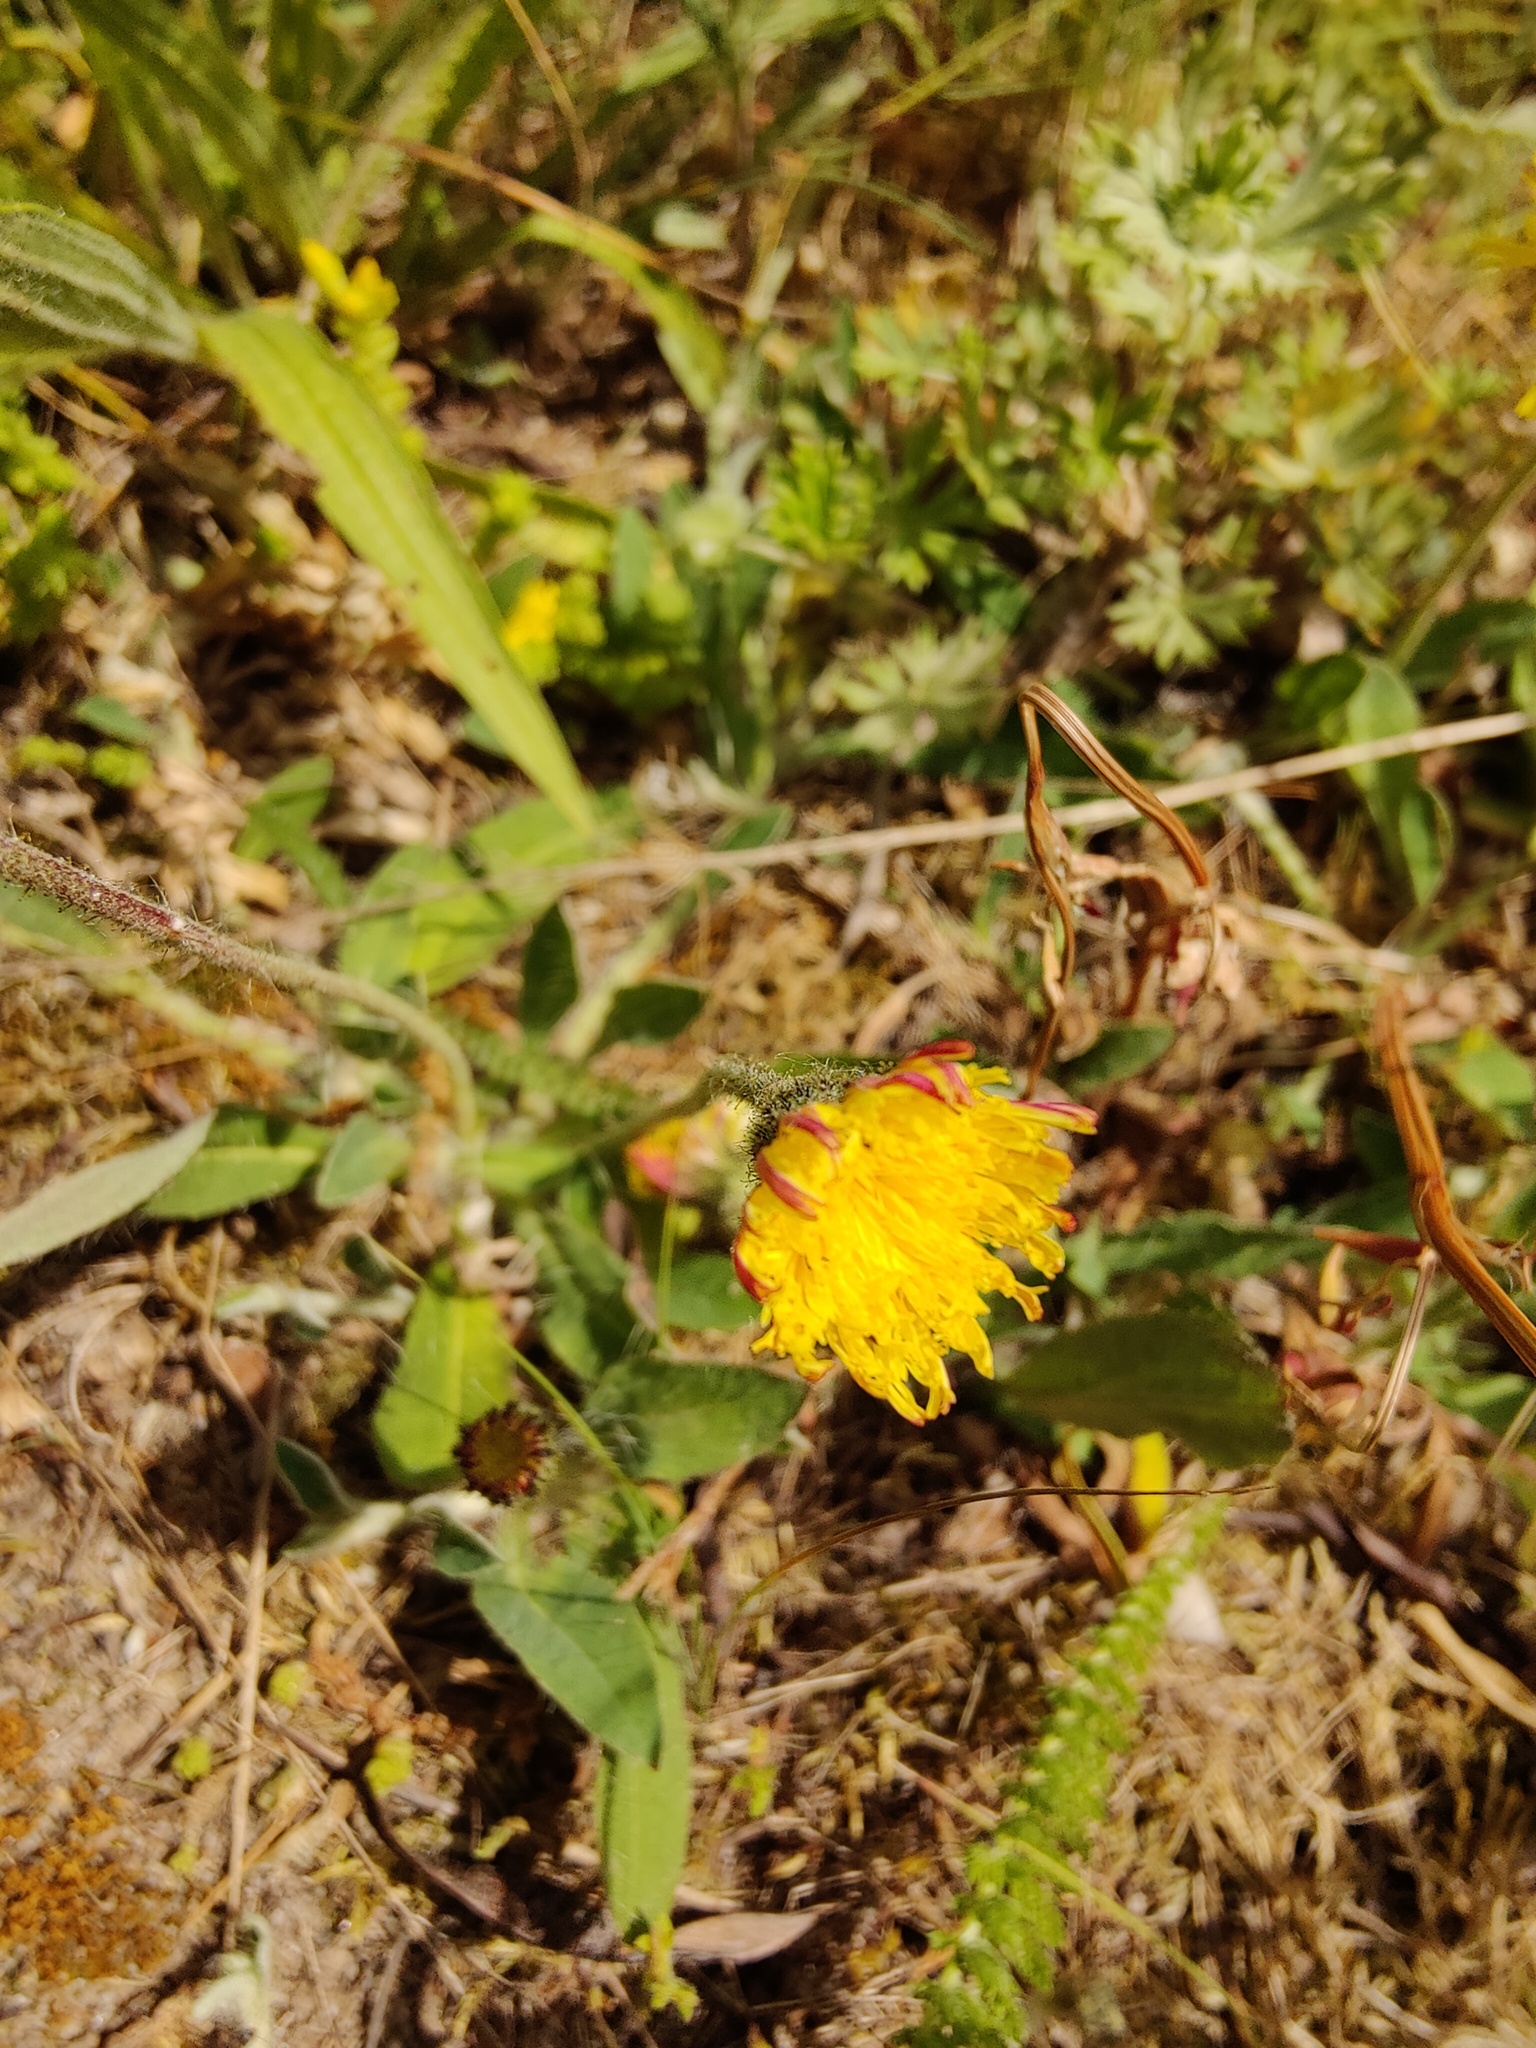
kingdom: Plantae
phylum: Tracheophyta
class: Magnoliopsida
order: Asterales
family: Asteraceae
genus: Pilosella
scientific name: Pilosella officinarum
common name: Mouse-ear hawkweed
